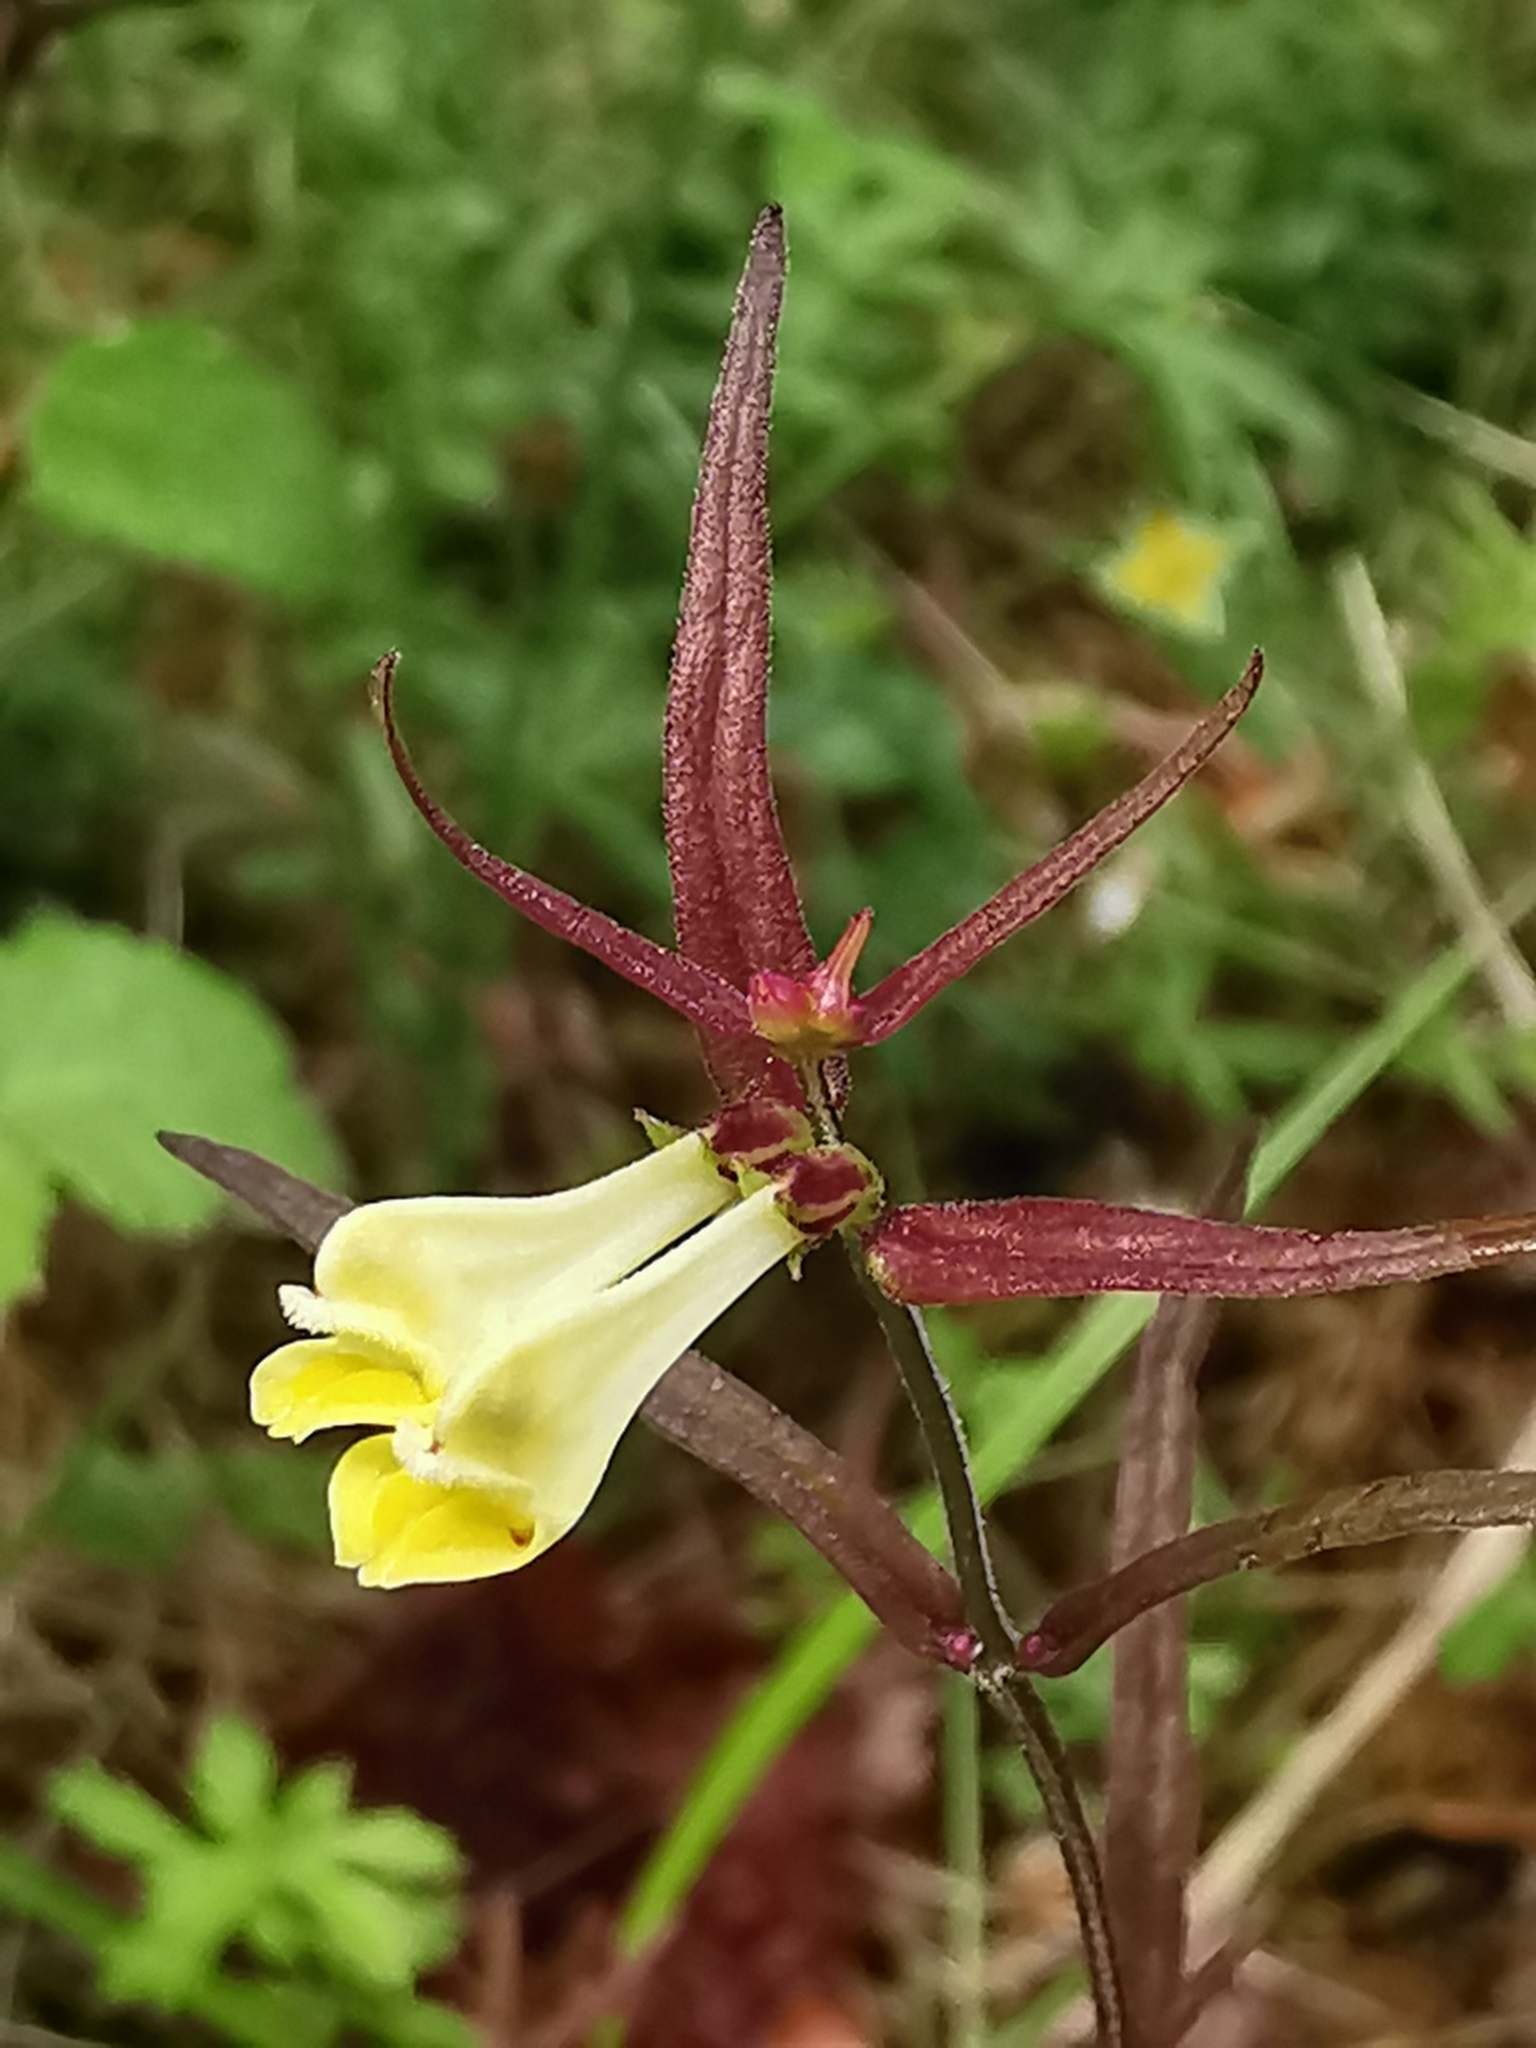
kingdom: Plantae
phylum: Tracheophyta
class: Magnoliopsida
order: Lamiales
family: Orobanchaceae
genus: Melampyrum
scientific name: Melampyrum pratense
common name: Common cow-wheat
